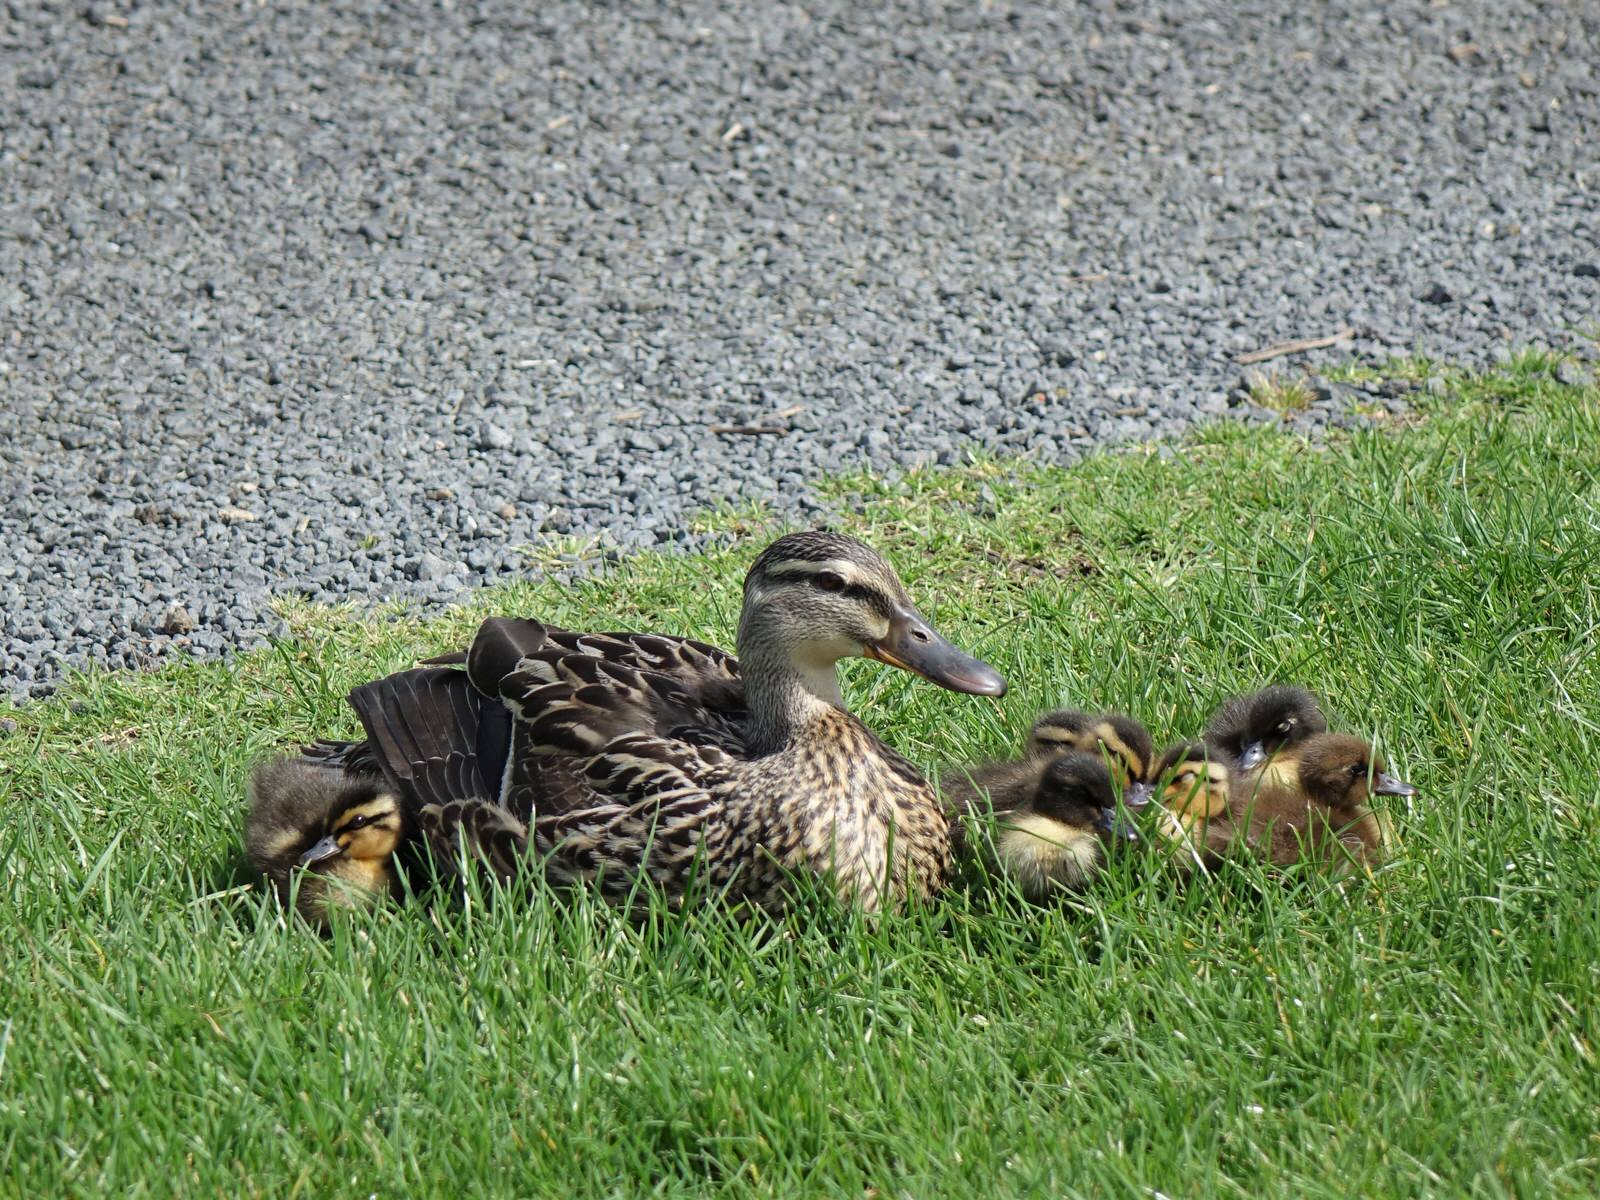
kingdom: Animalia
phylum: Chordata
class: Aves
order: Anseriformes
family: Anatidae
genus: Anas
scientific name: Anas platyrhynchos
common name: Mallard
